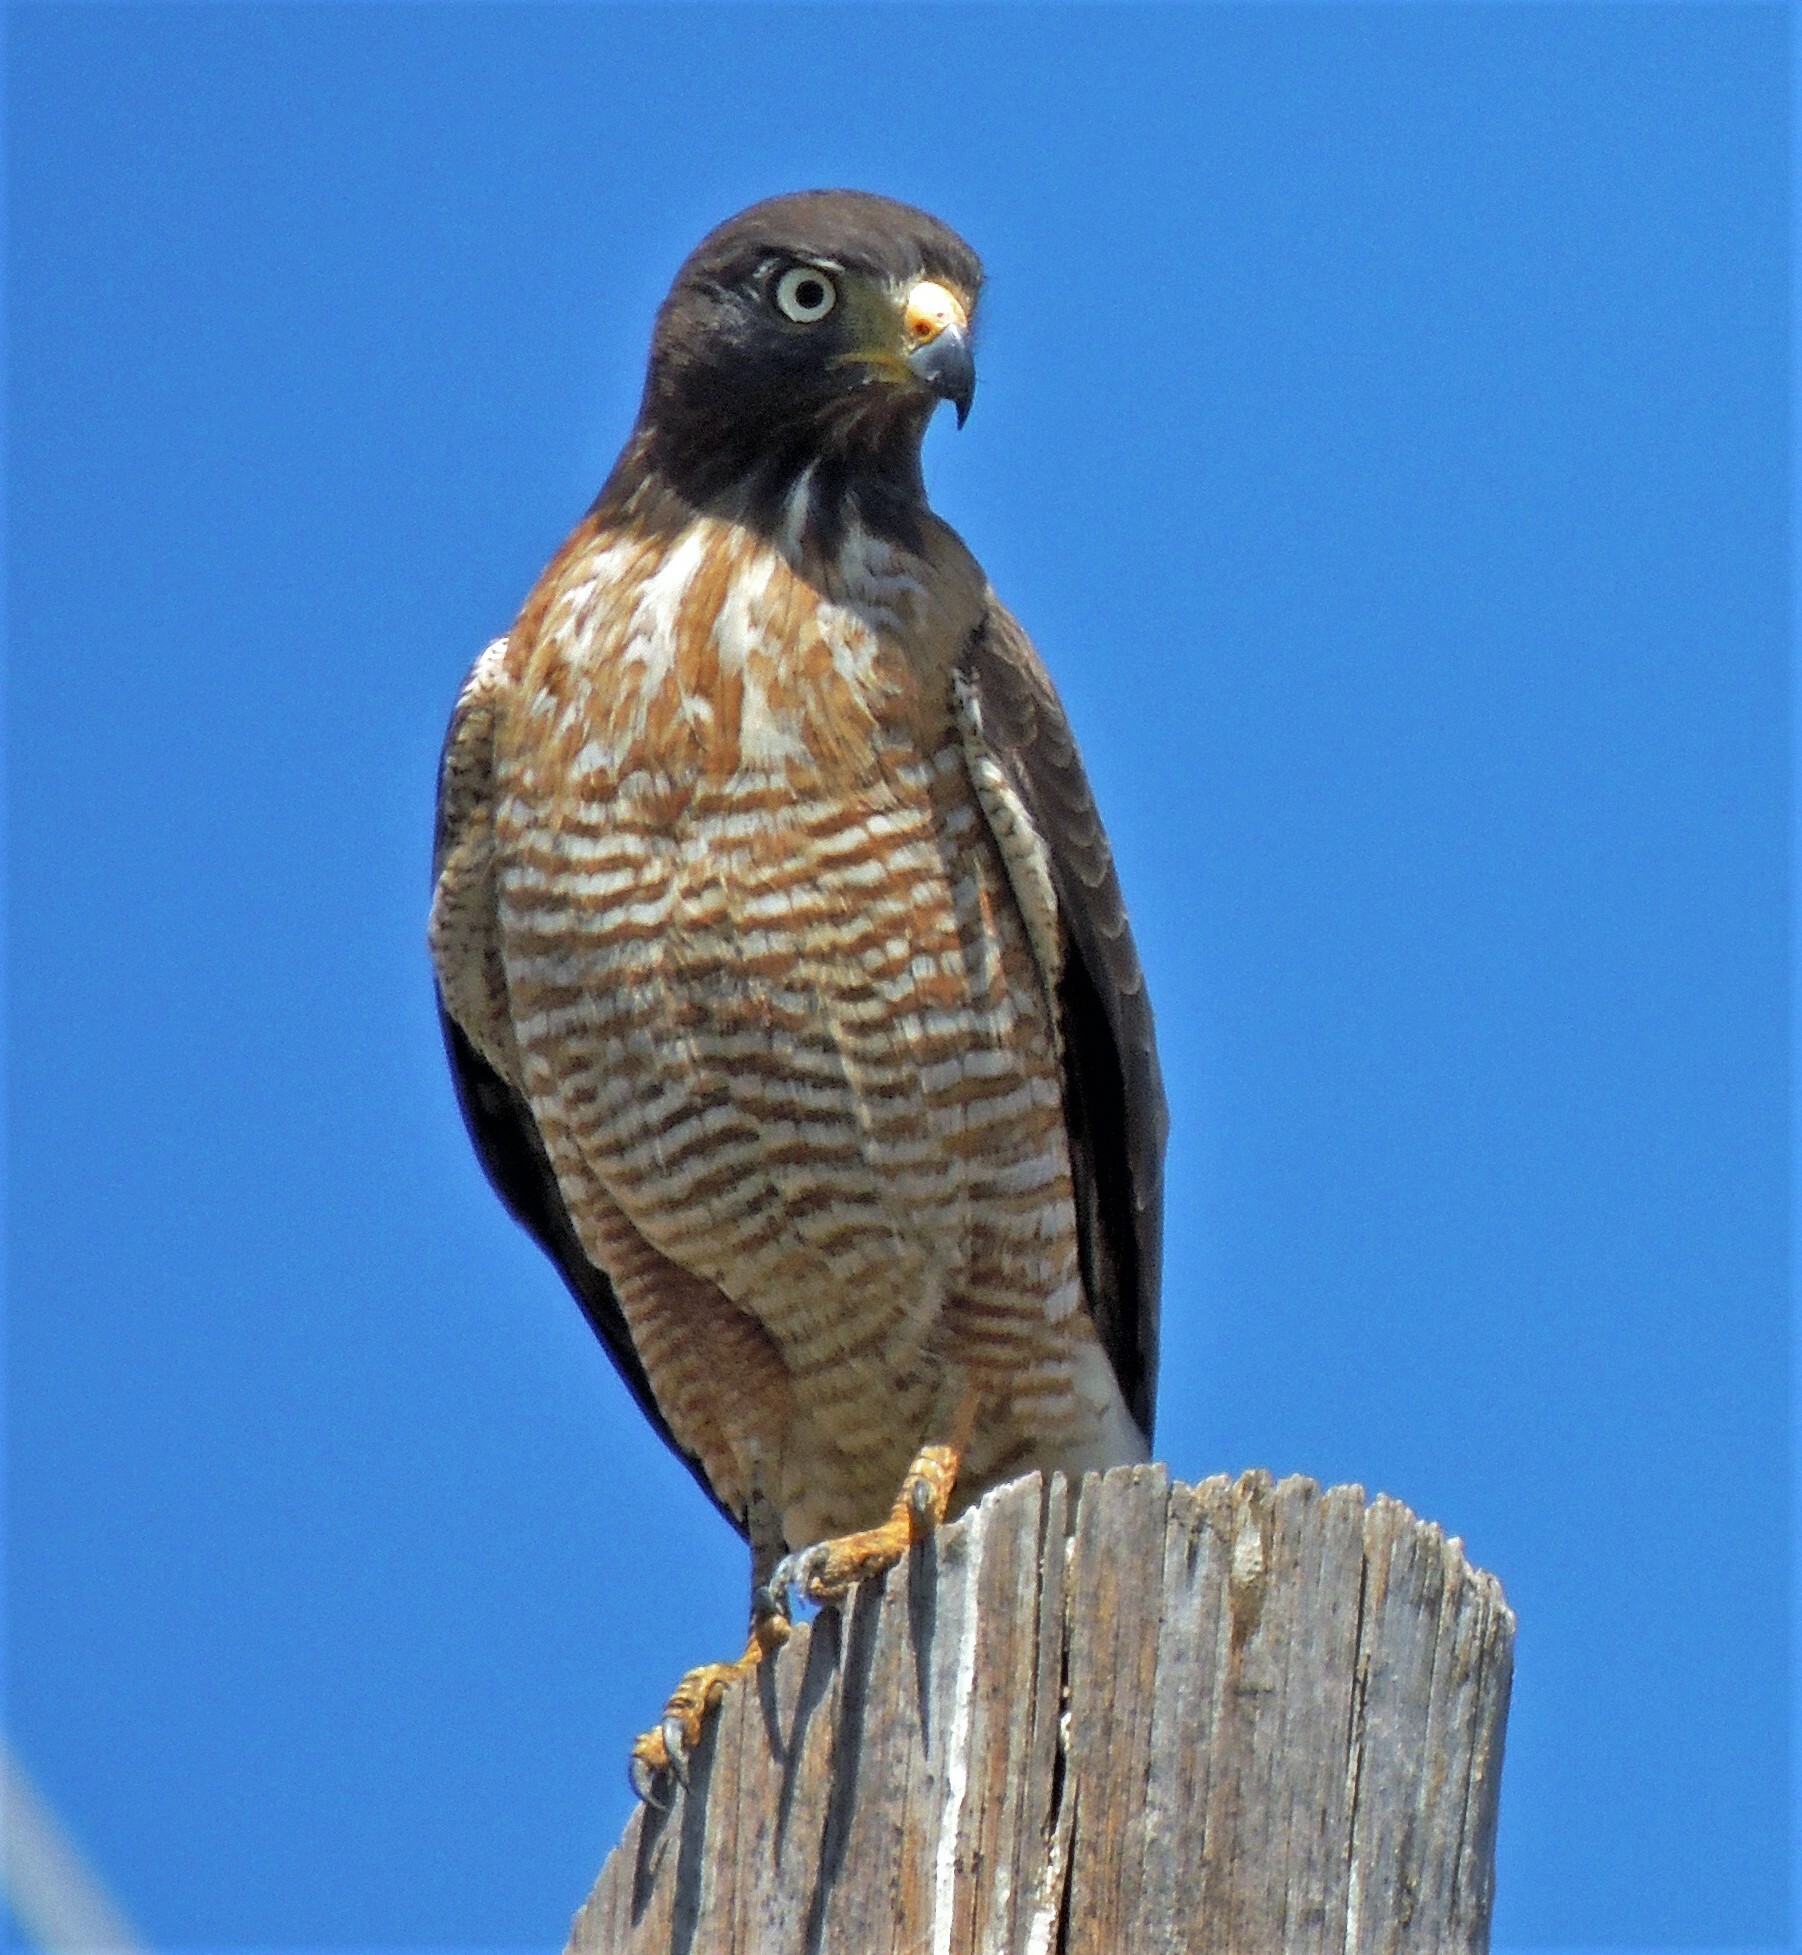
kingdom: Animalia
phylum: Chordata
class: Aves
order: Accipitriformes
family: Accipitridae
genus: Rupornis
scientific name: Rupornis magnirostris
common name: Roadside hawk
